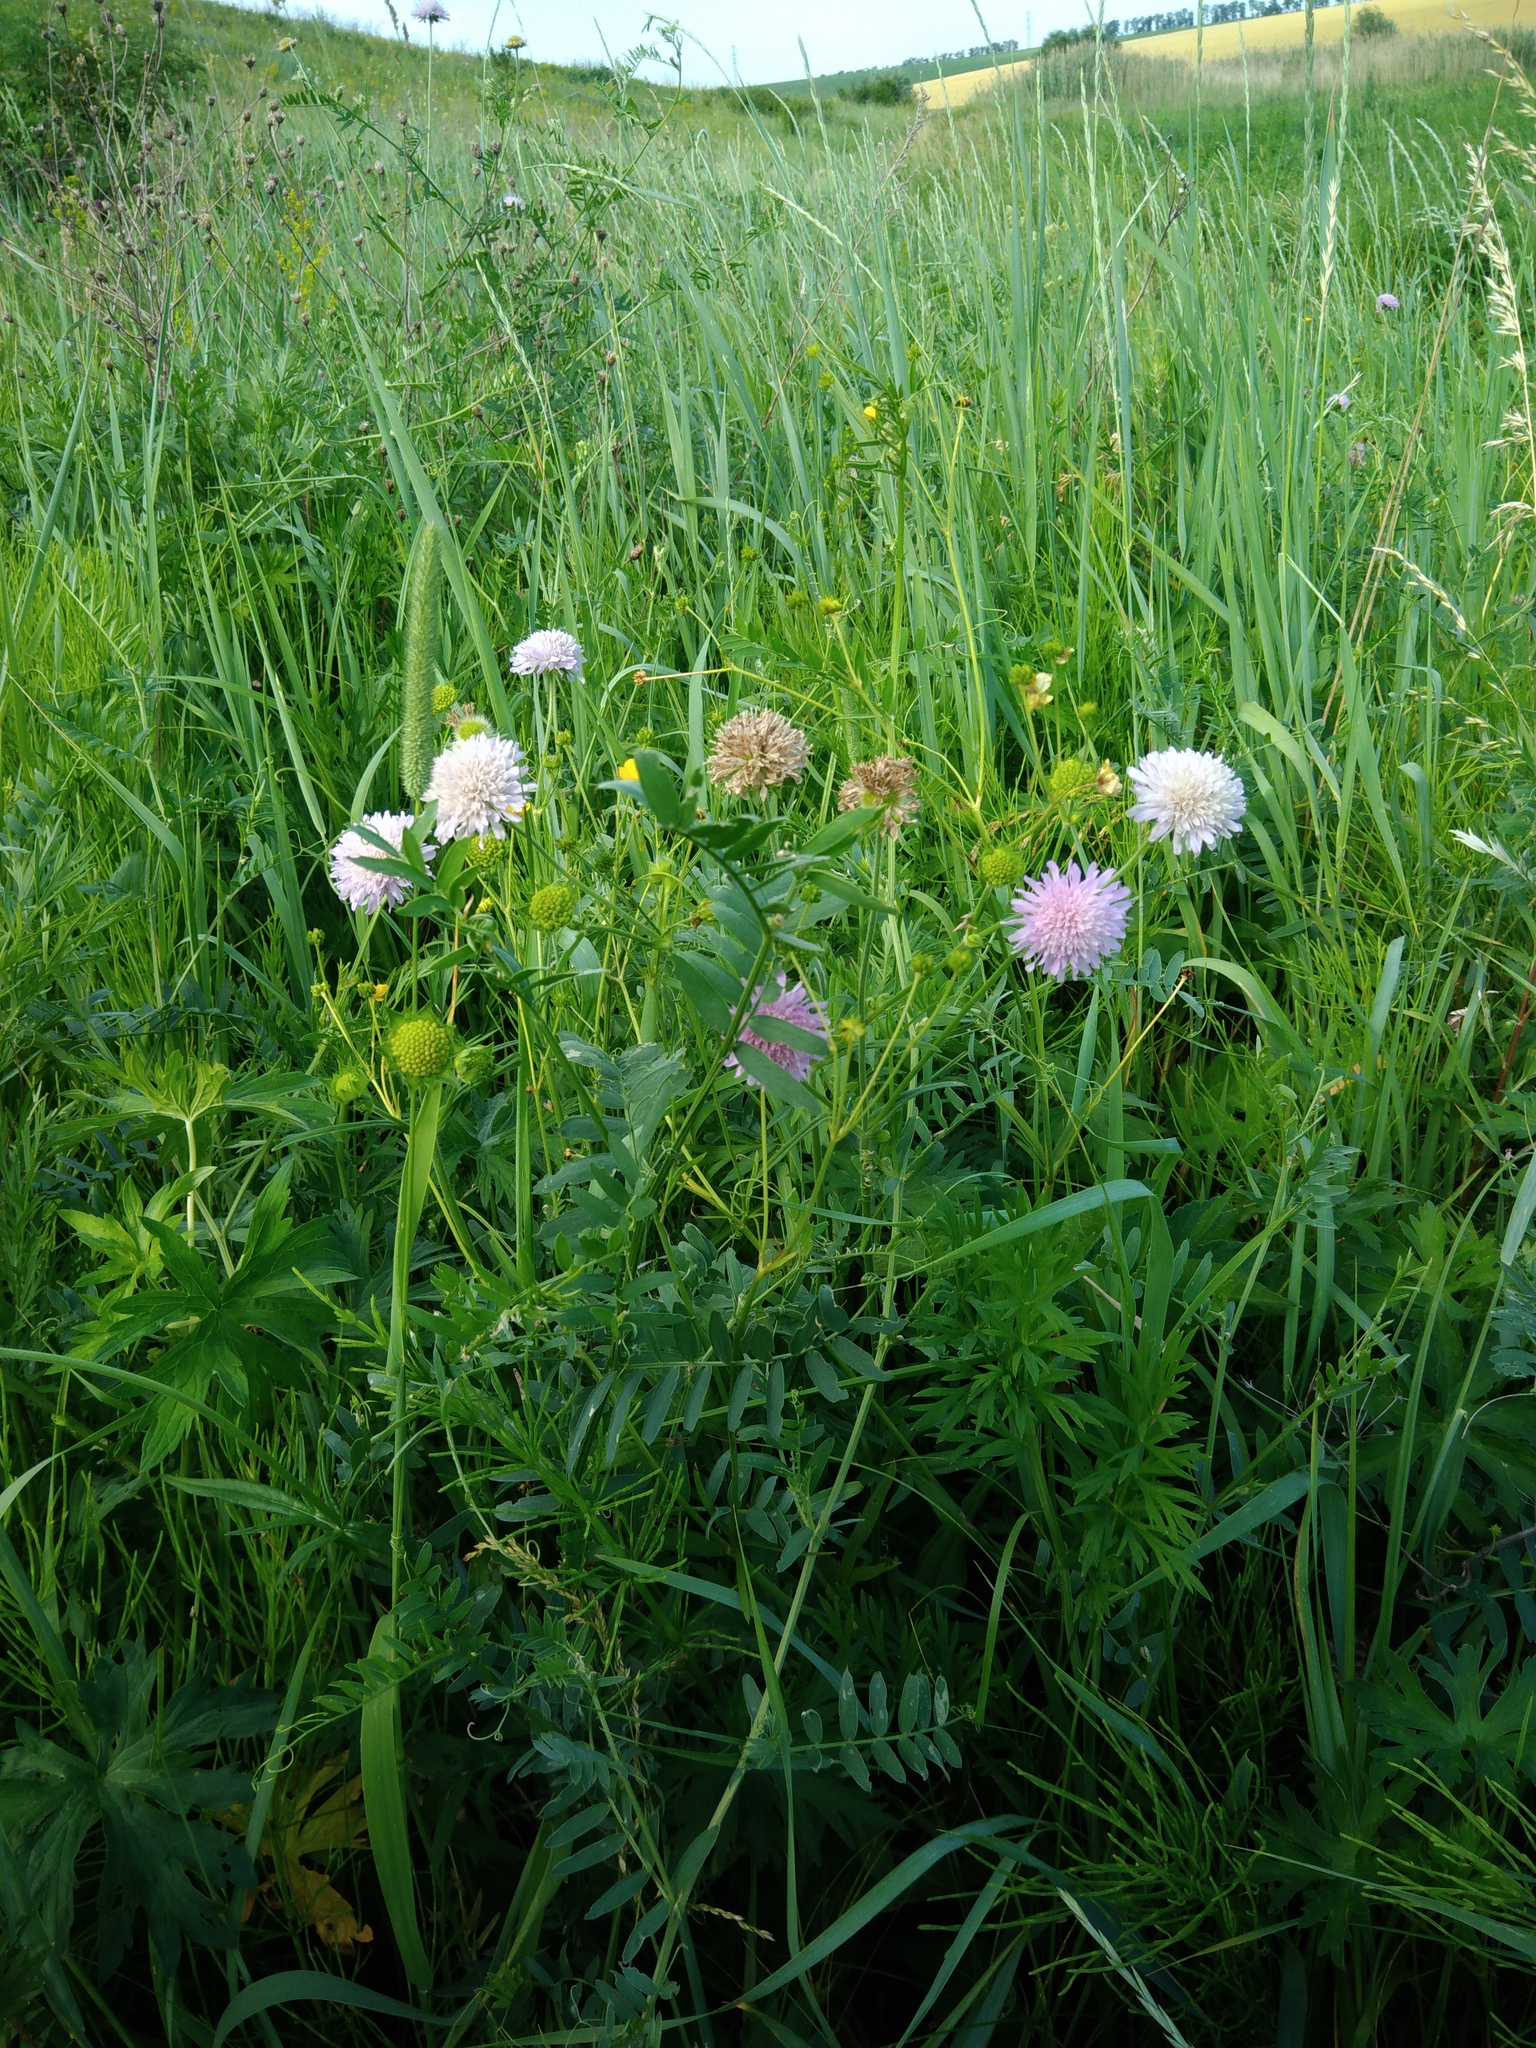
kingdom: Plantae
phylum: Tracheophyta
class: Magnoliopsida
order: Dipsacales
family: Caprifoliaceae
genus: Knautia
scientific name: Knautia arvensis
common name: Field scabiosa
